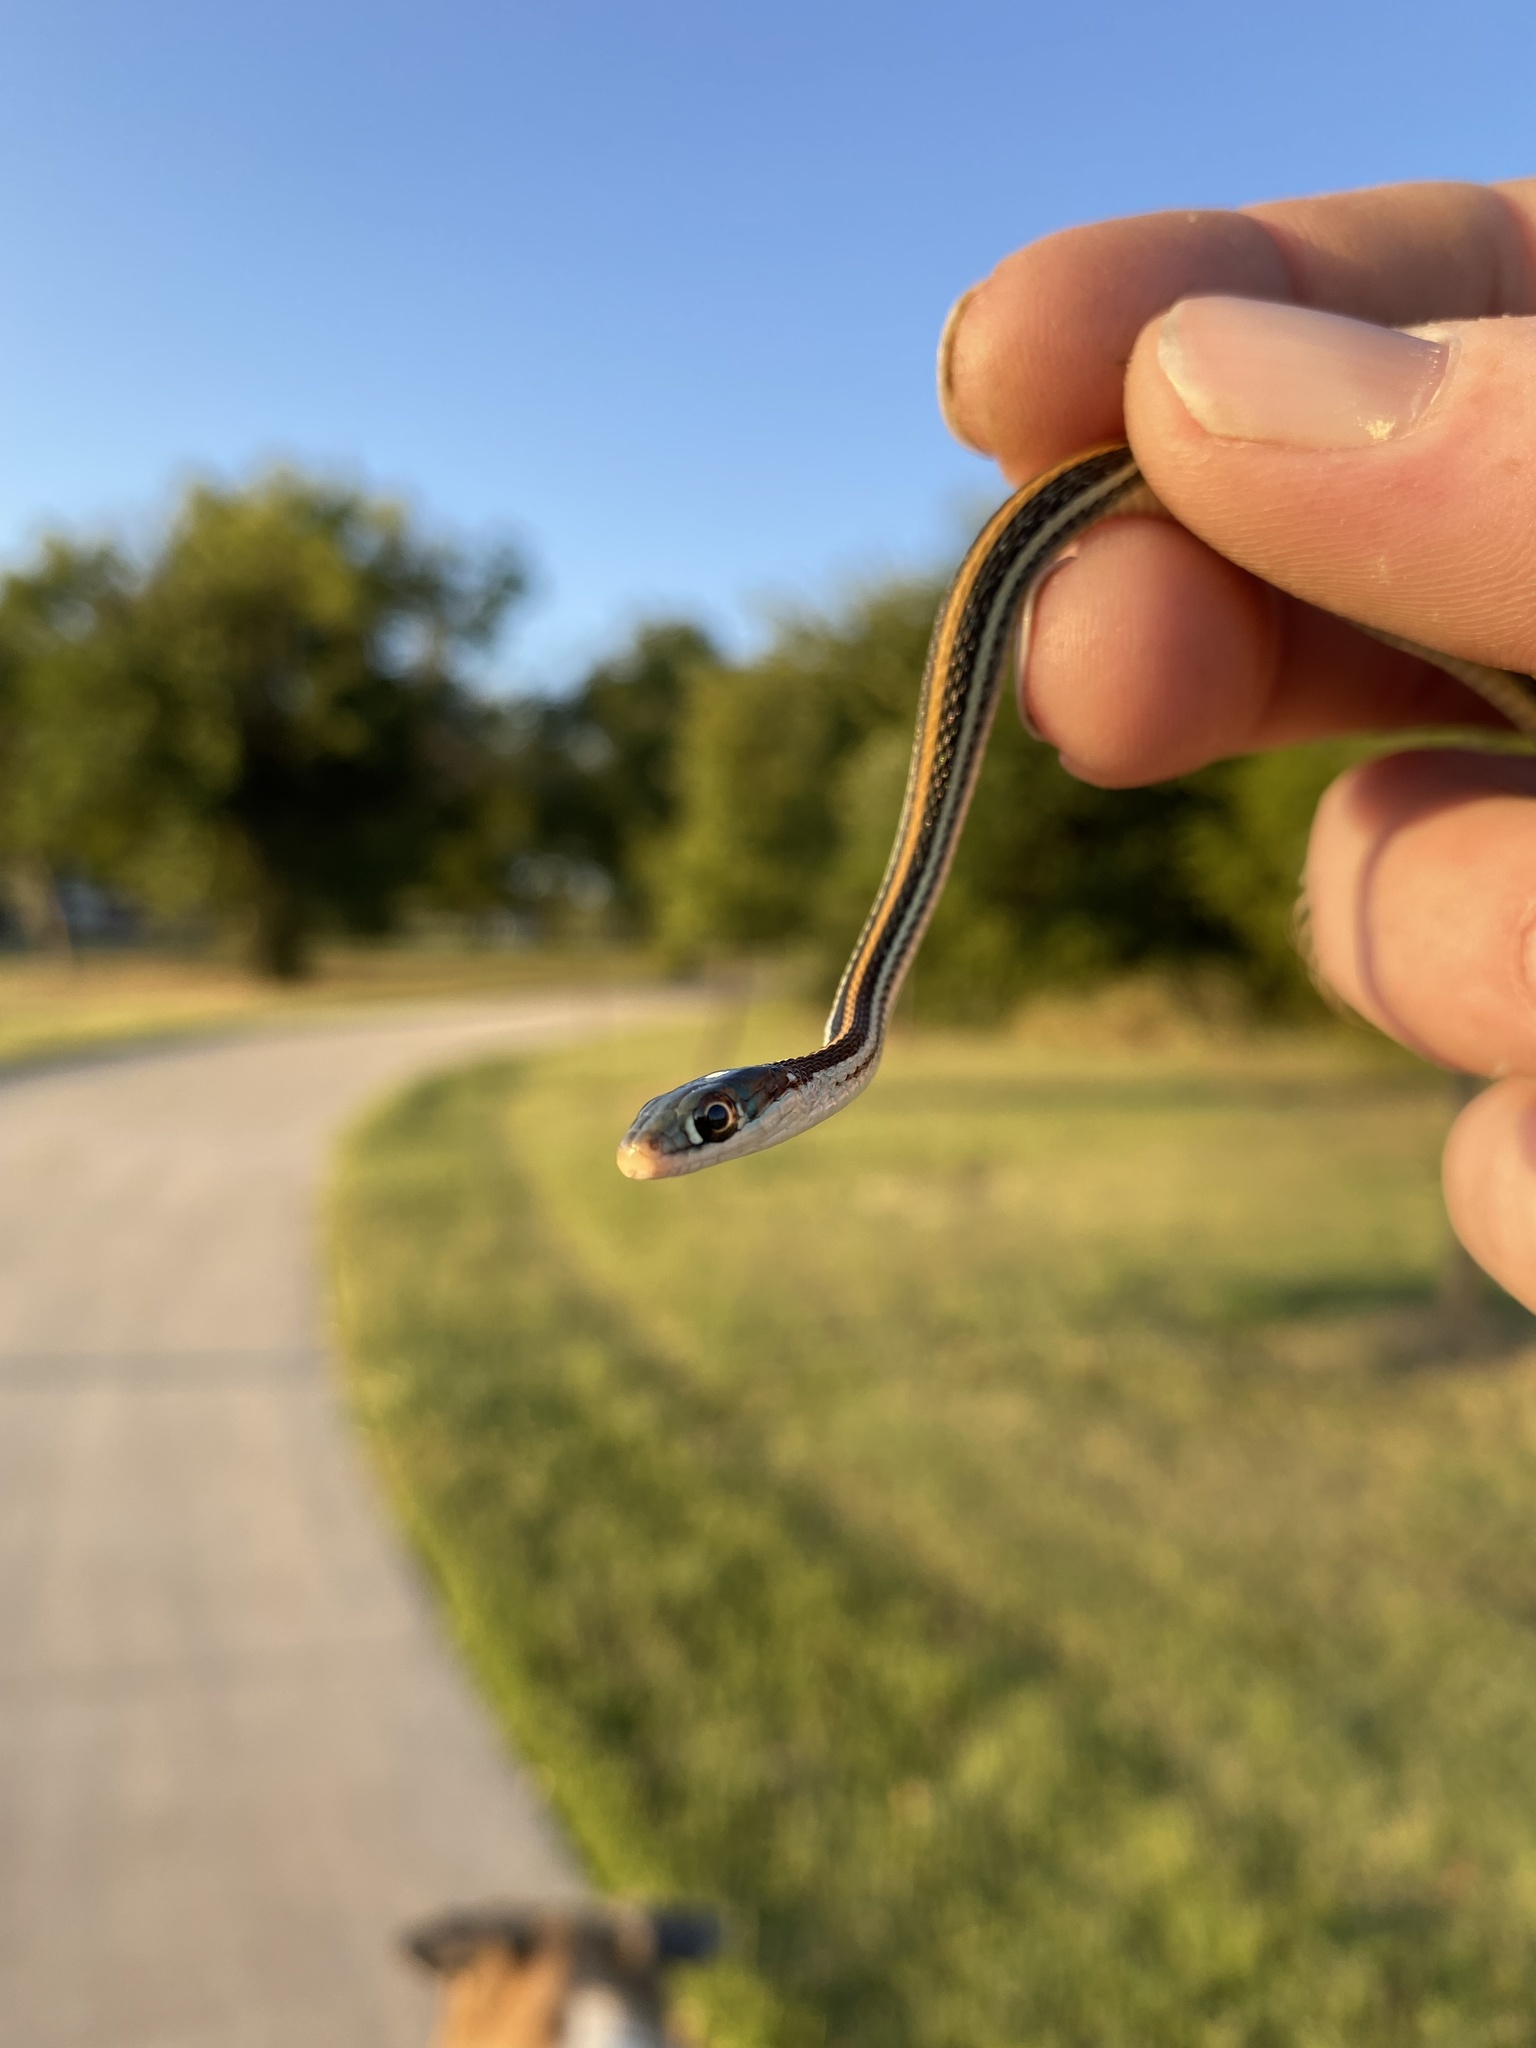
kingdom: Animalia
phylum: Chordata
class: Squamata
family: Colubridae
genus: Thamnophis
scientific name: Thamnophis proximus
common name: Western ribbon snake
